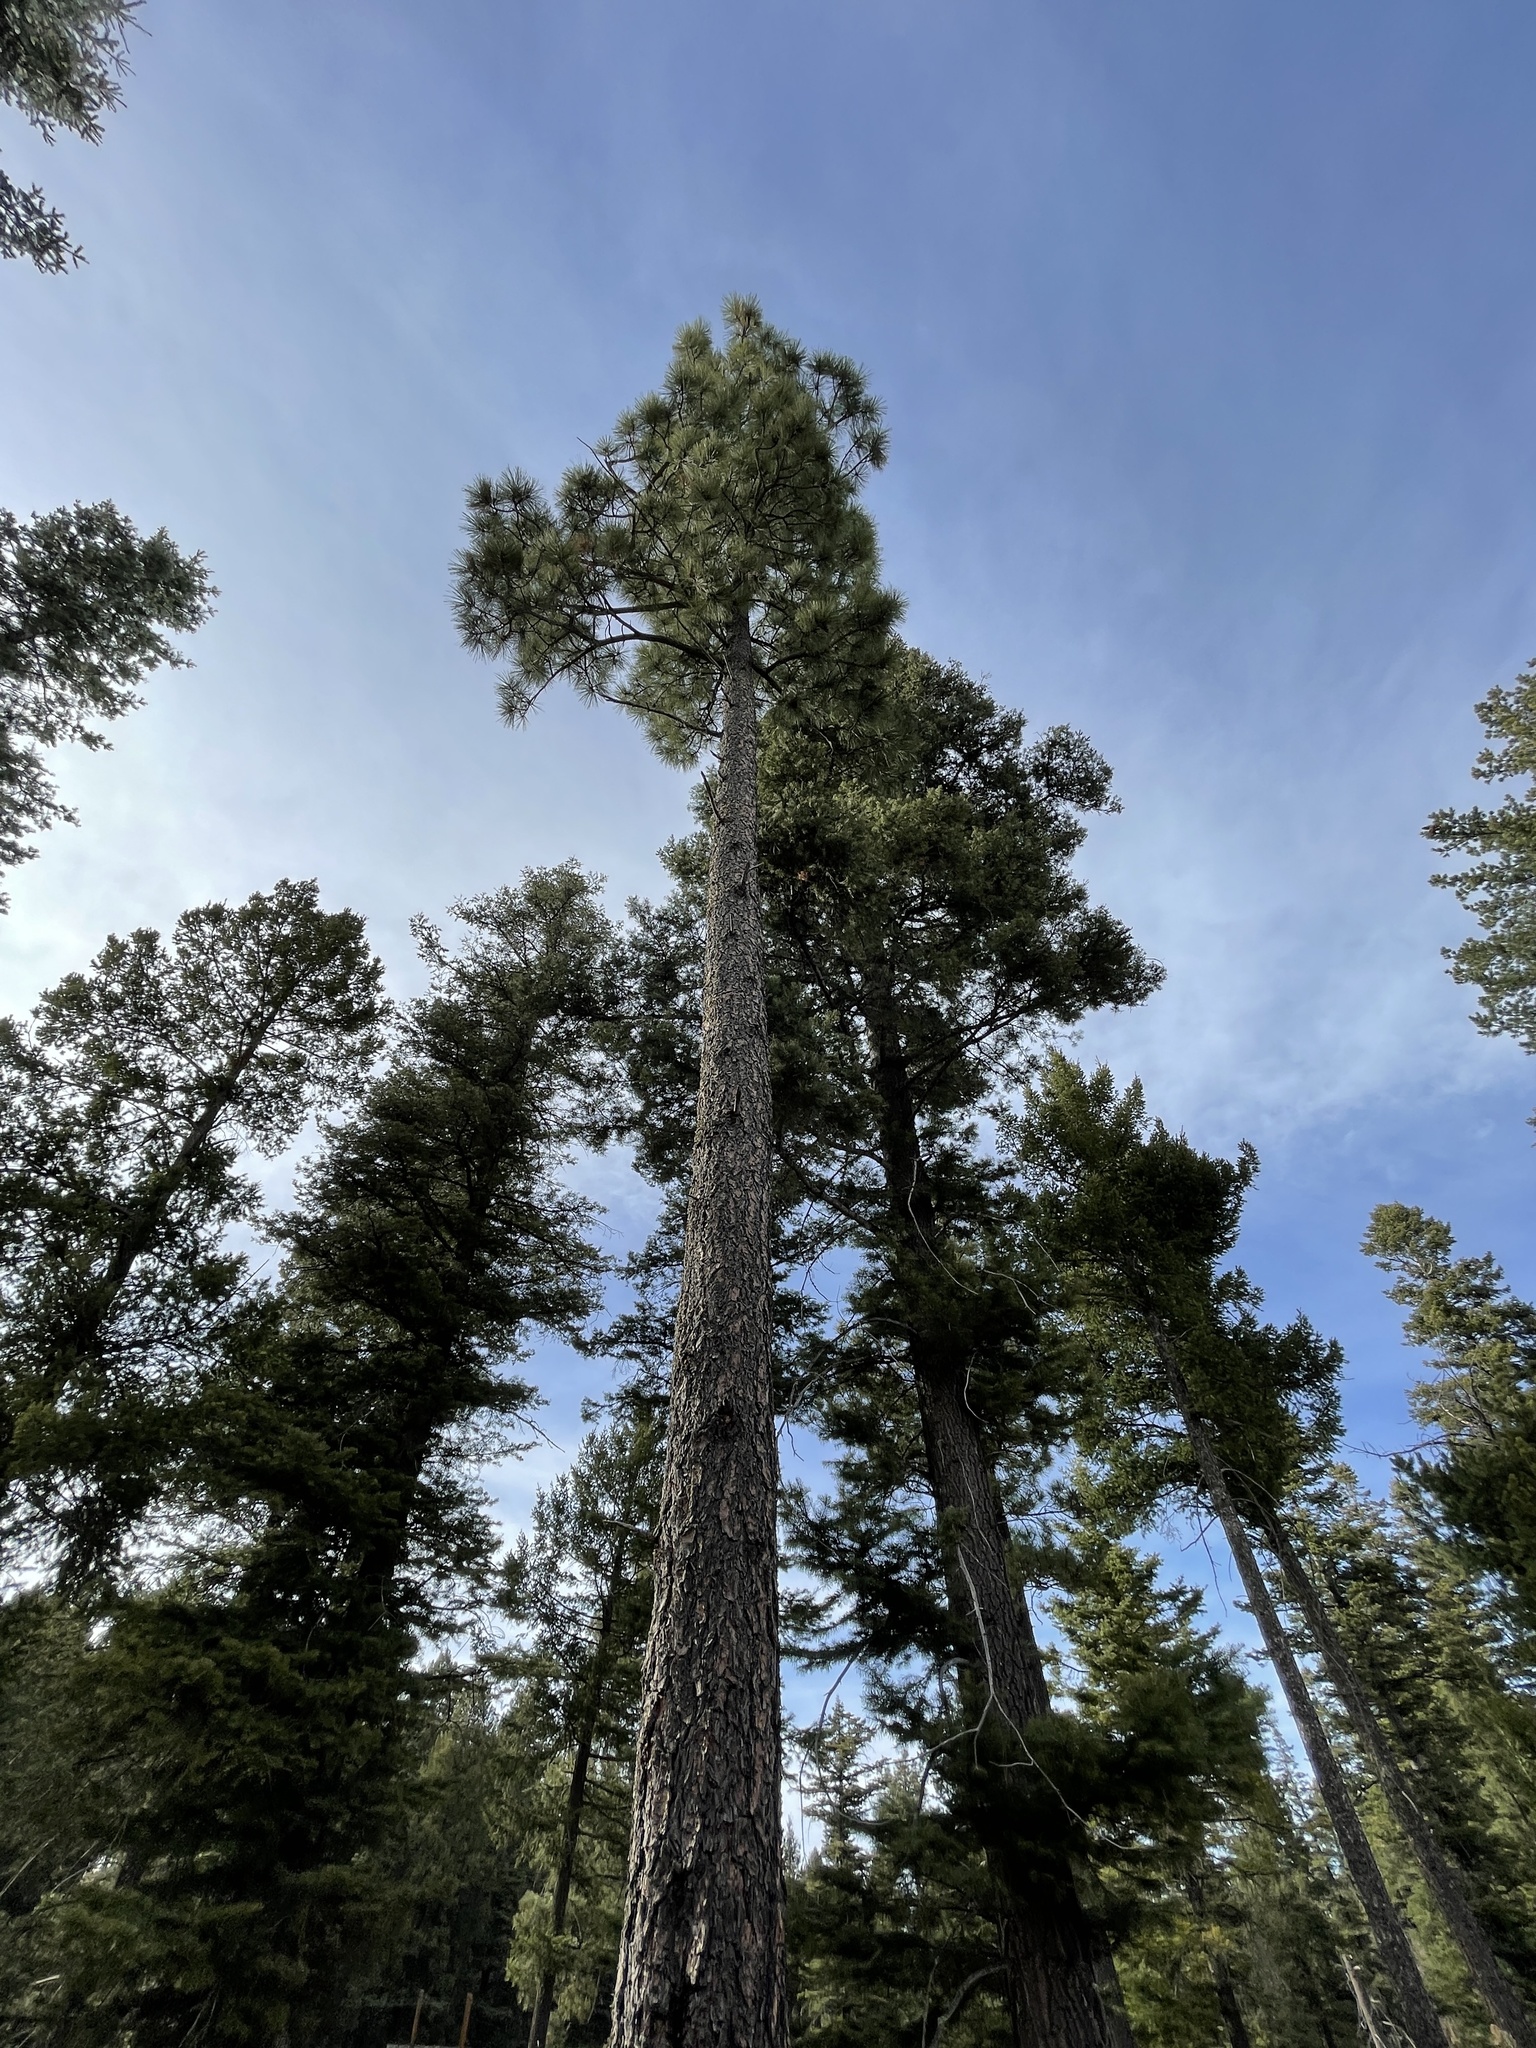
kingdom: Plantae
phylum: Tracheophyta
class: Pinopsida
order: Pinales
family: Pinaceae
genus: Pinus
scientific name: Pinus ponderosa
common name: Western yellow-pine
